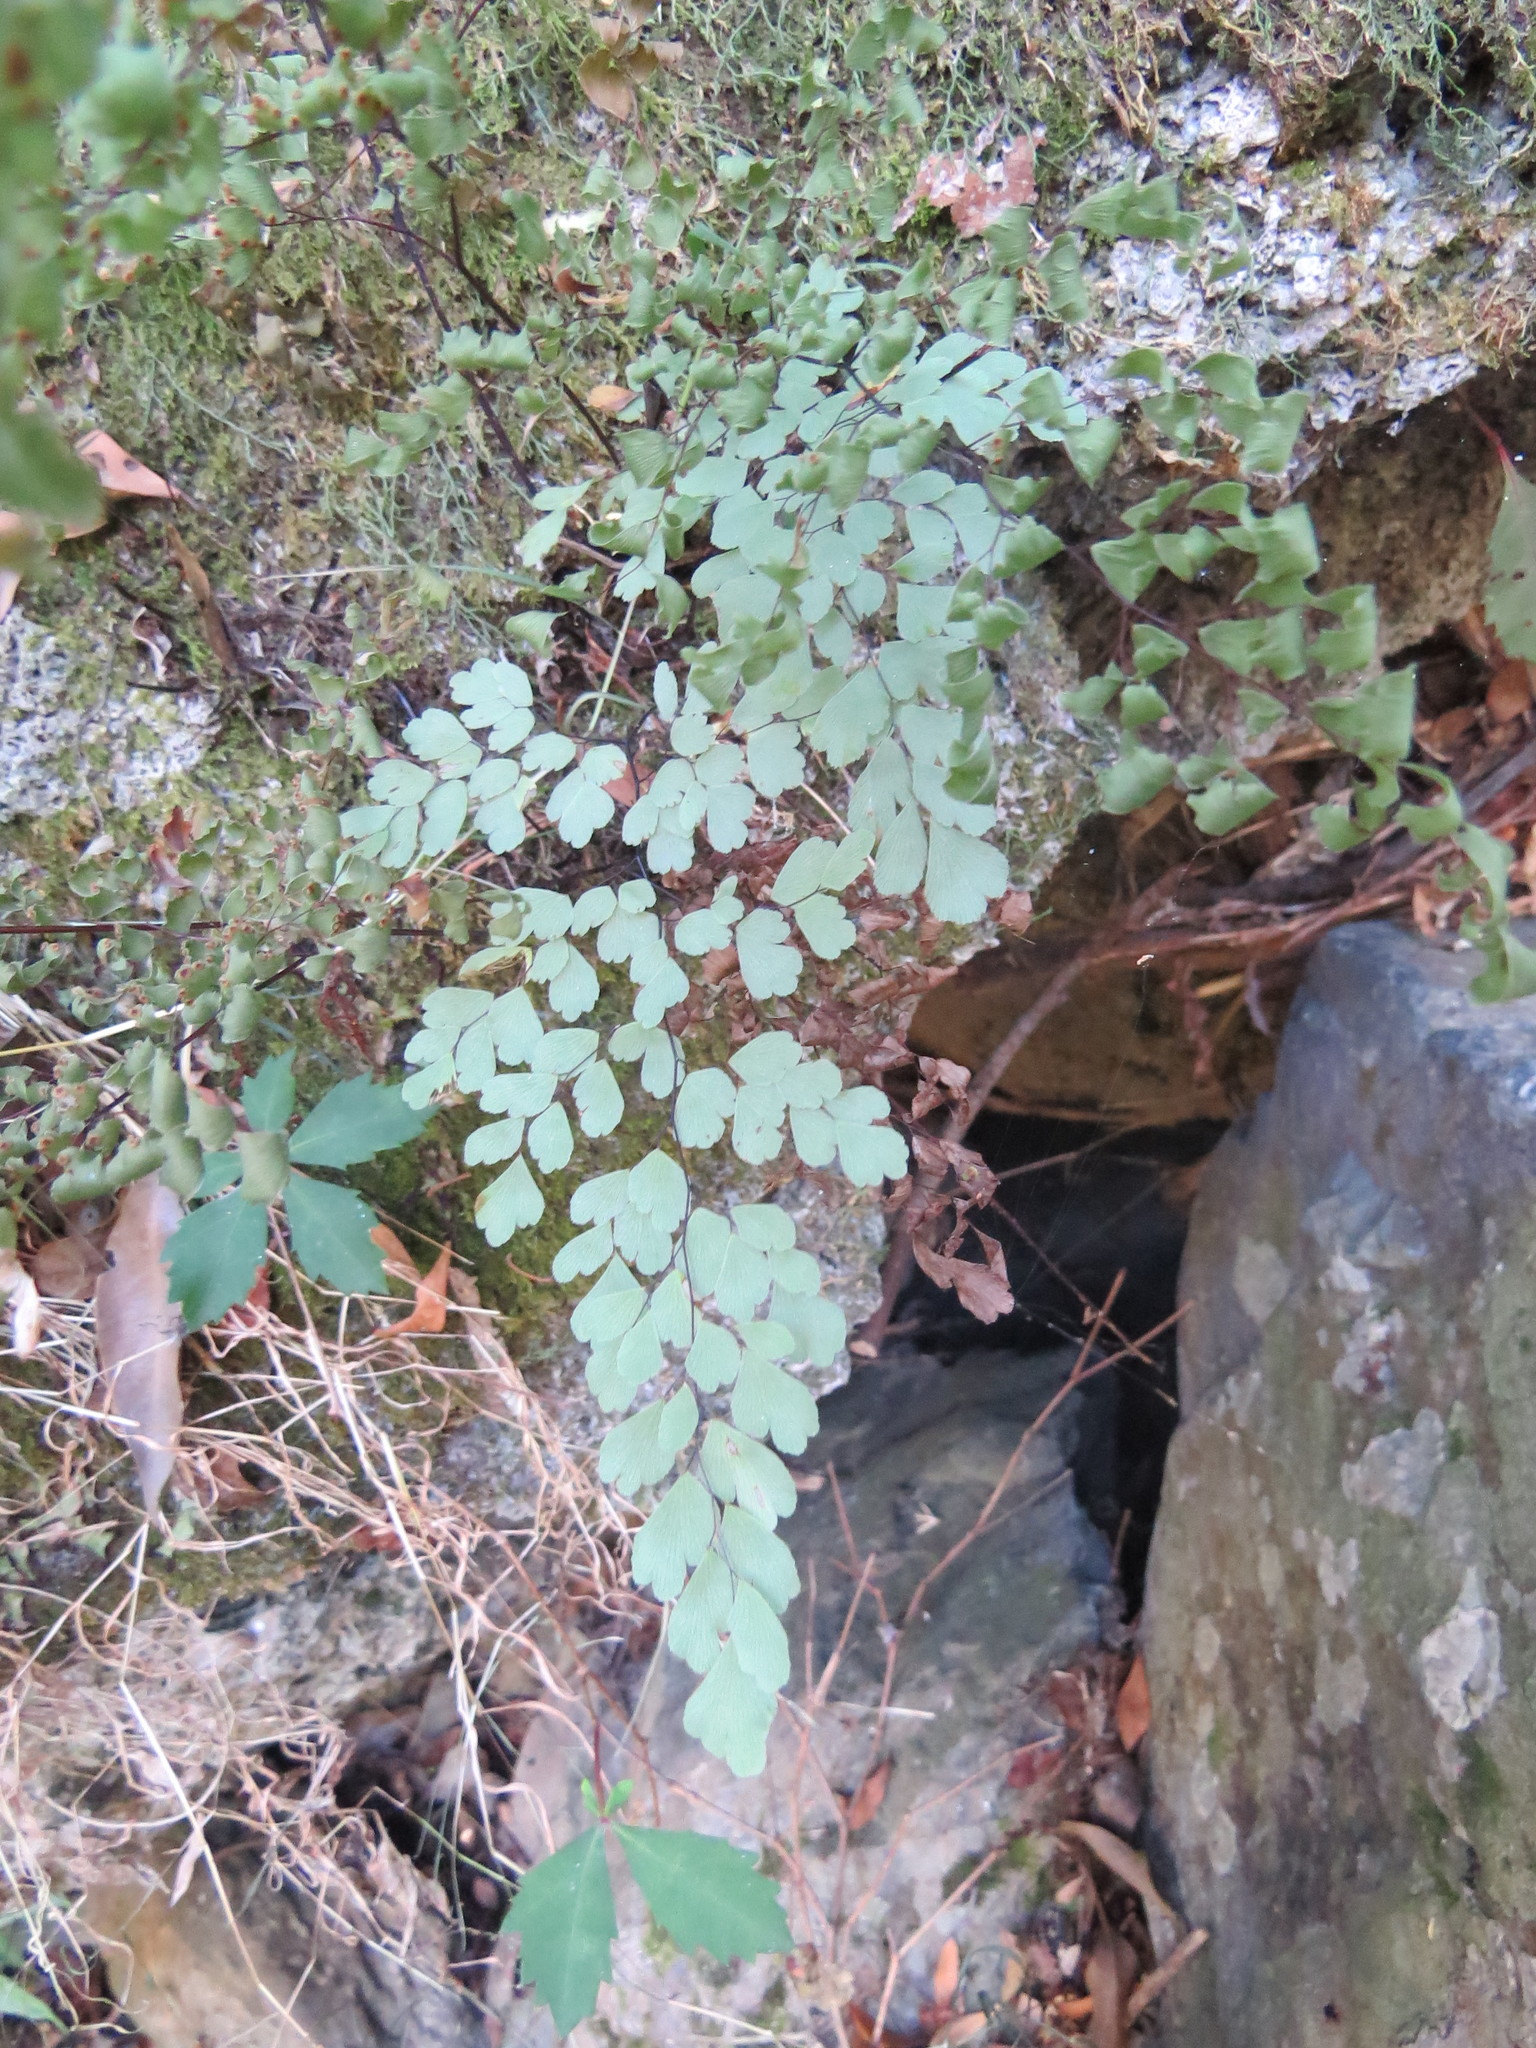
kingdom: Plantae
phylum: Tracheophyta
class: Polypodiopsida
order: Polypodiales
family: Pteridaceae
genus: Adiantum
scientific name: Adiantum raddianum
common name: Delta maidenhair fern
